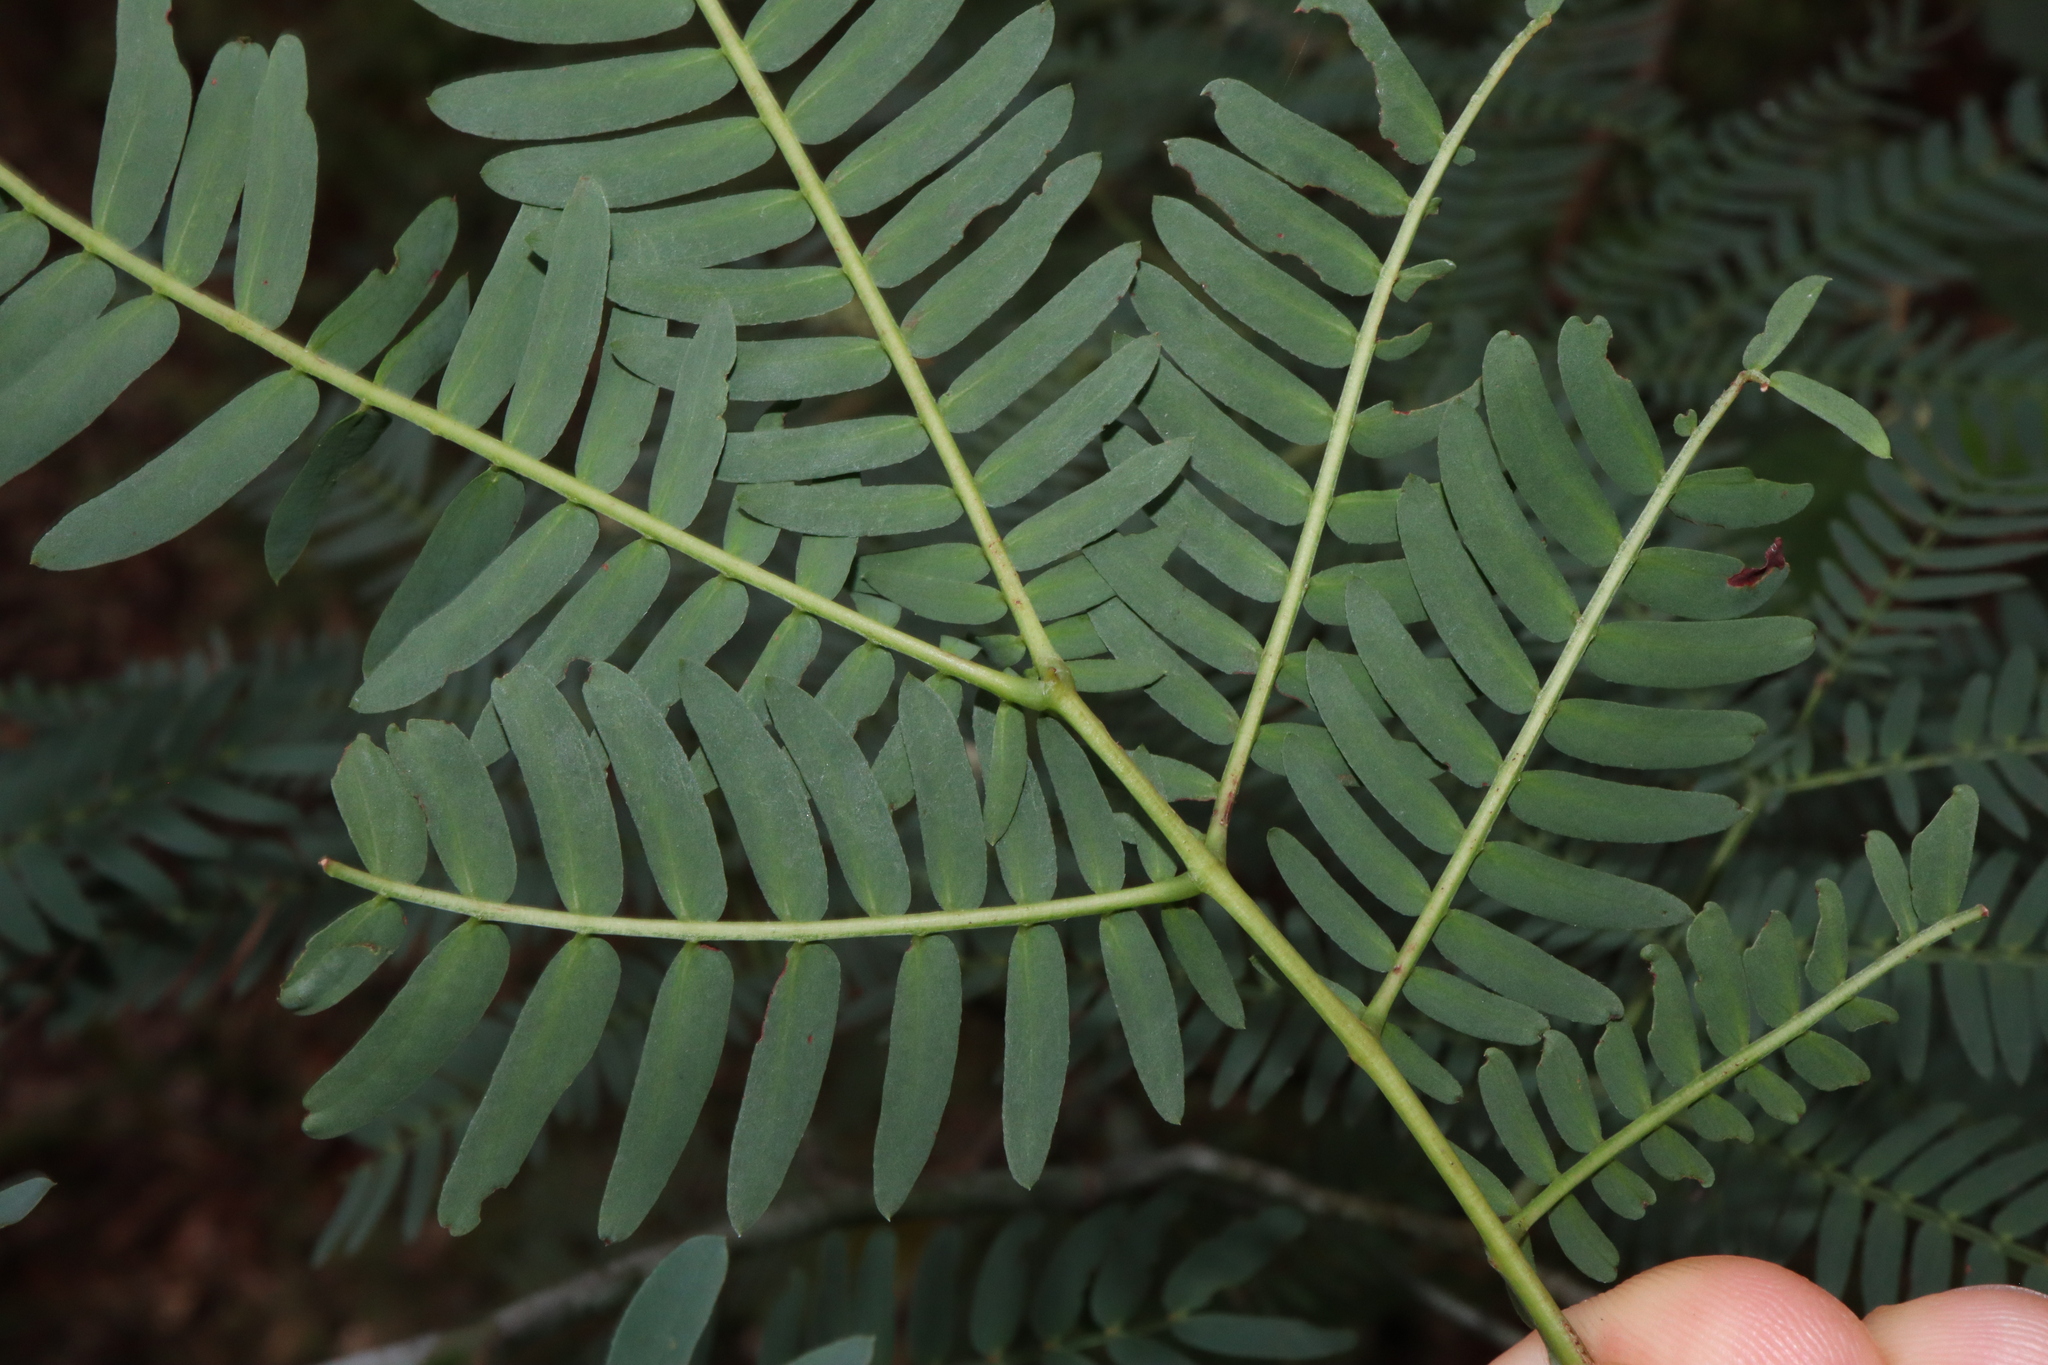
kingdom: Plantae
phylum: Tracheophyta
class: Magnoliopsida
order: Fabales
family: Fabaceae
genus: Acacia
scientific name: Acacia schinoides
